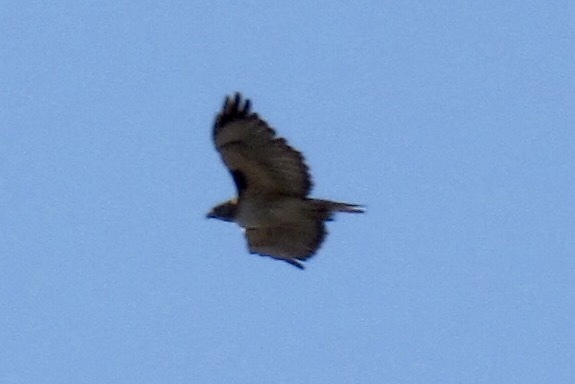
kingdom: Animalia
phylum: Chordata
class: Aves
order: Accipitriformes
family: Accipitridae
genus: Buteo
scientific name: Buteo jamaicensis
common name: Red-tailed hawk
